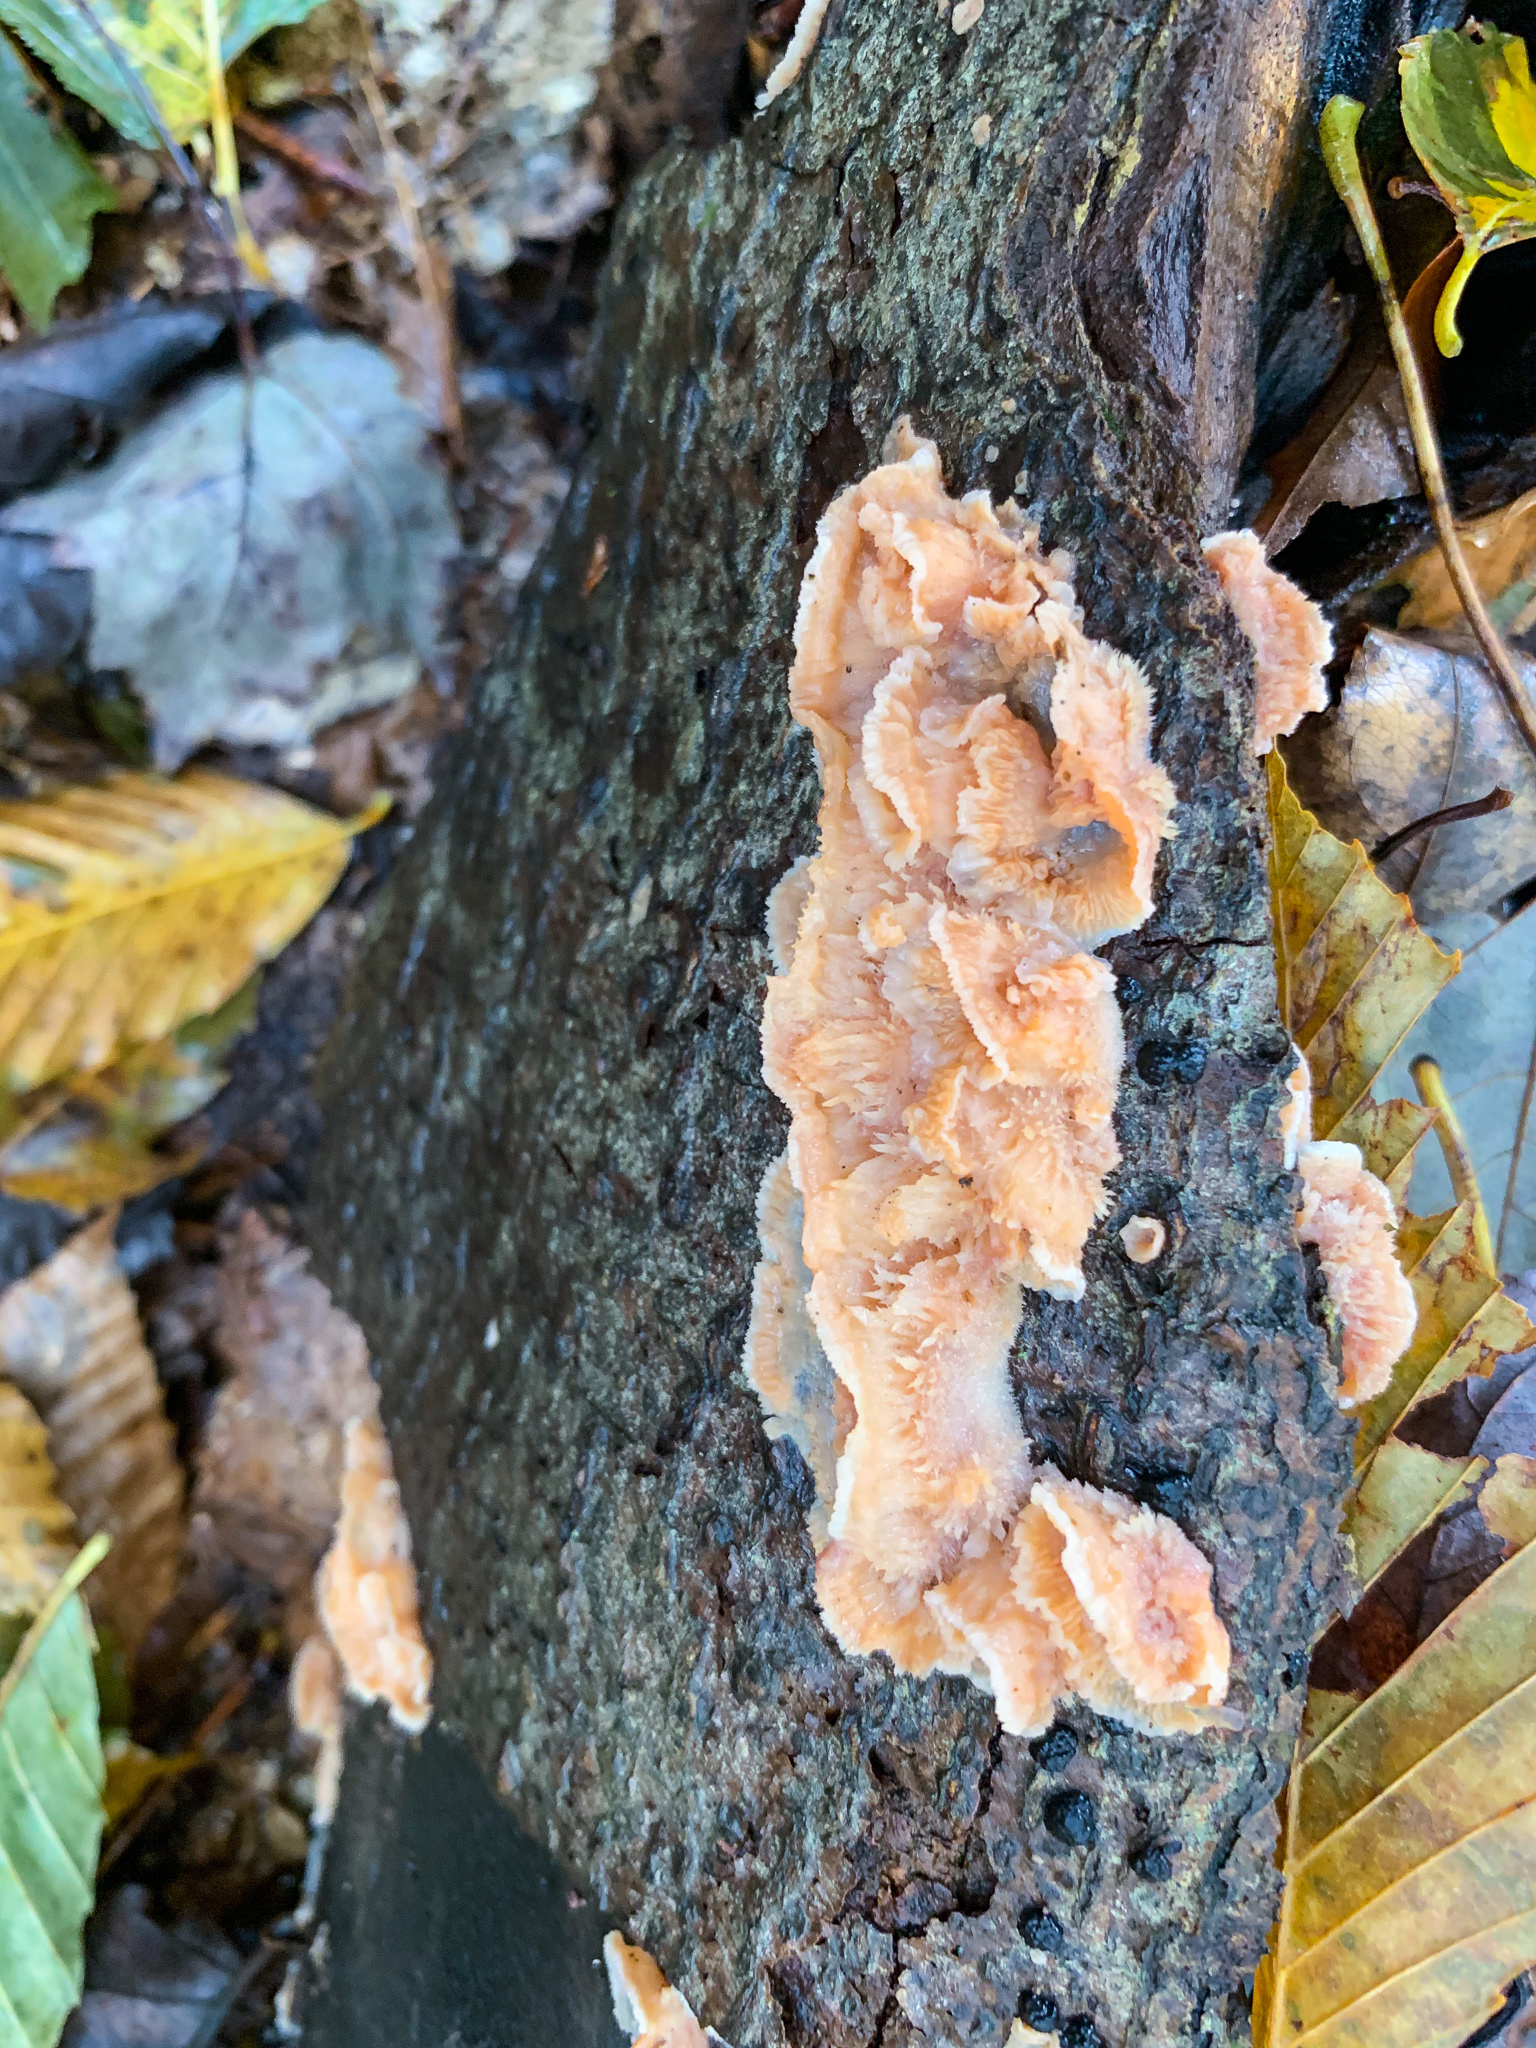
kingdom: Fungi
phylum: Basidiomycota
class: Agaricomycetes
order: Polyporales
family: Meruliaceae
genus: Phlebia
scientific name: Phlebia tremellosa
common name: Jelly rot
